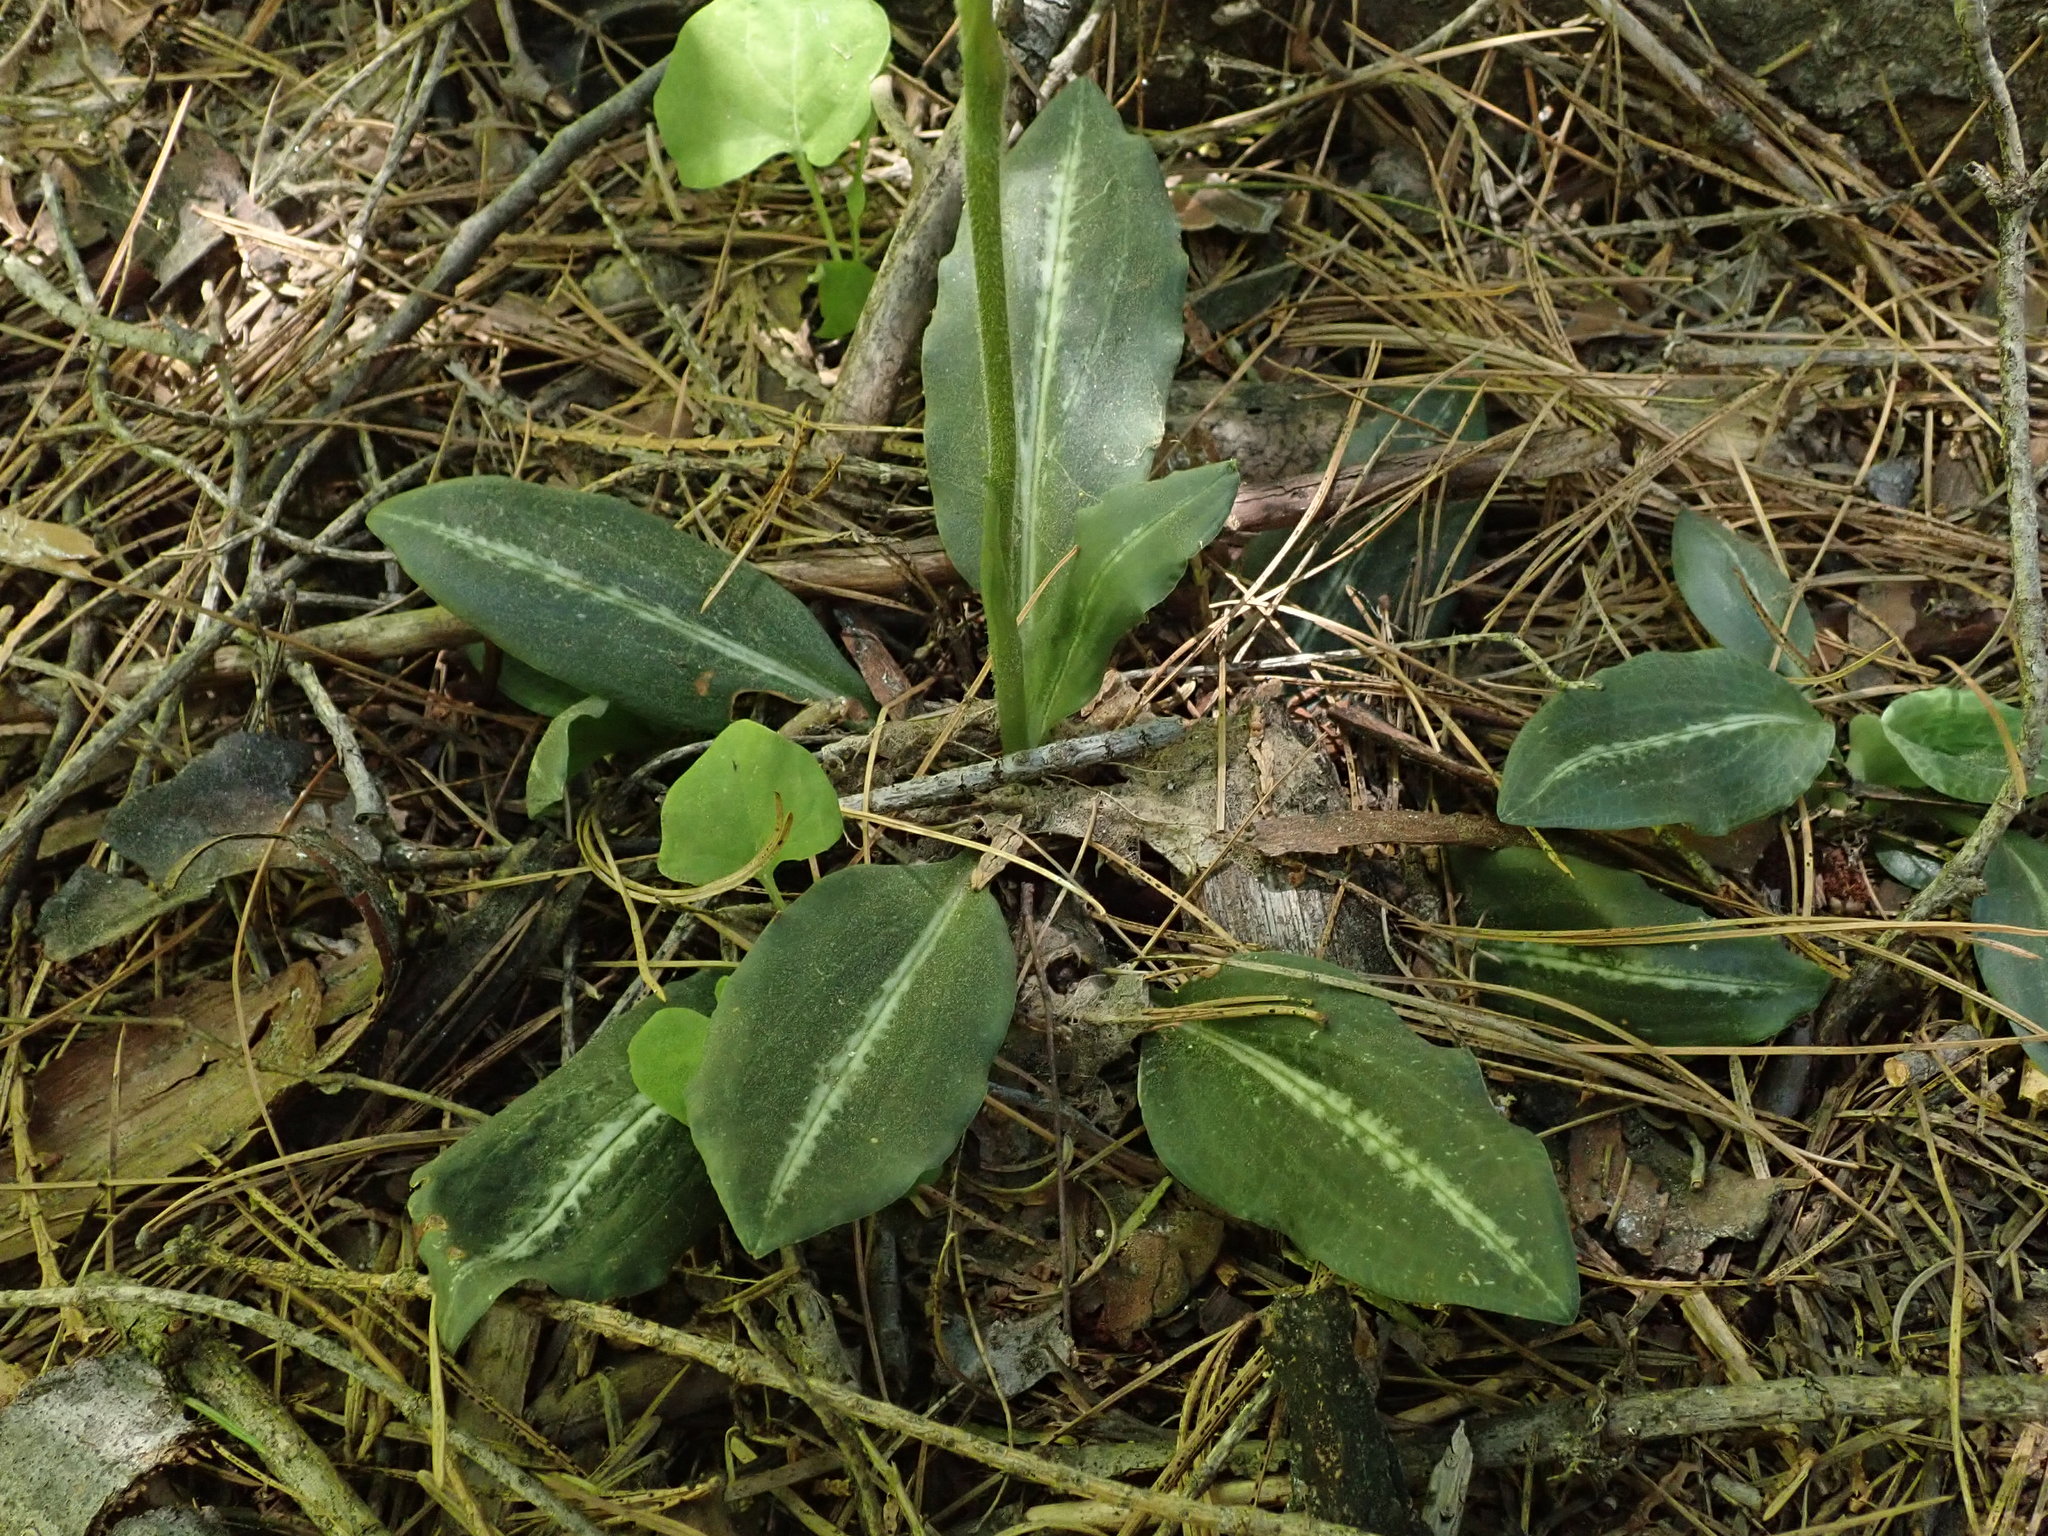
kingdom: Plantae
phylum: Tracheophyta
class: Liliopsida
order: Asparagales
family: Orchidaceae
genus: Goodyera
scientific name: Goodyera oblongifolia
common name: Giant rattlesnake-plantain
